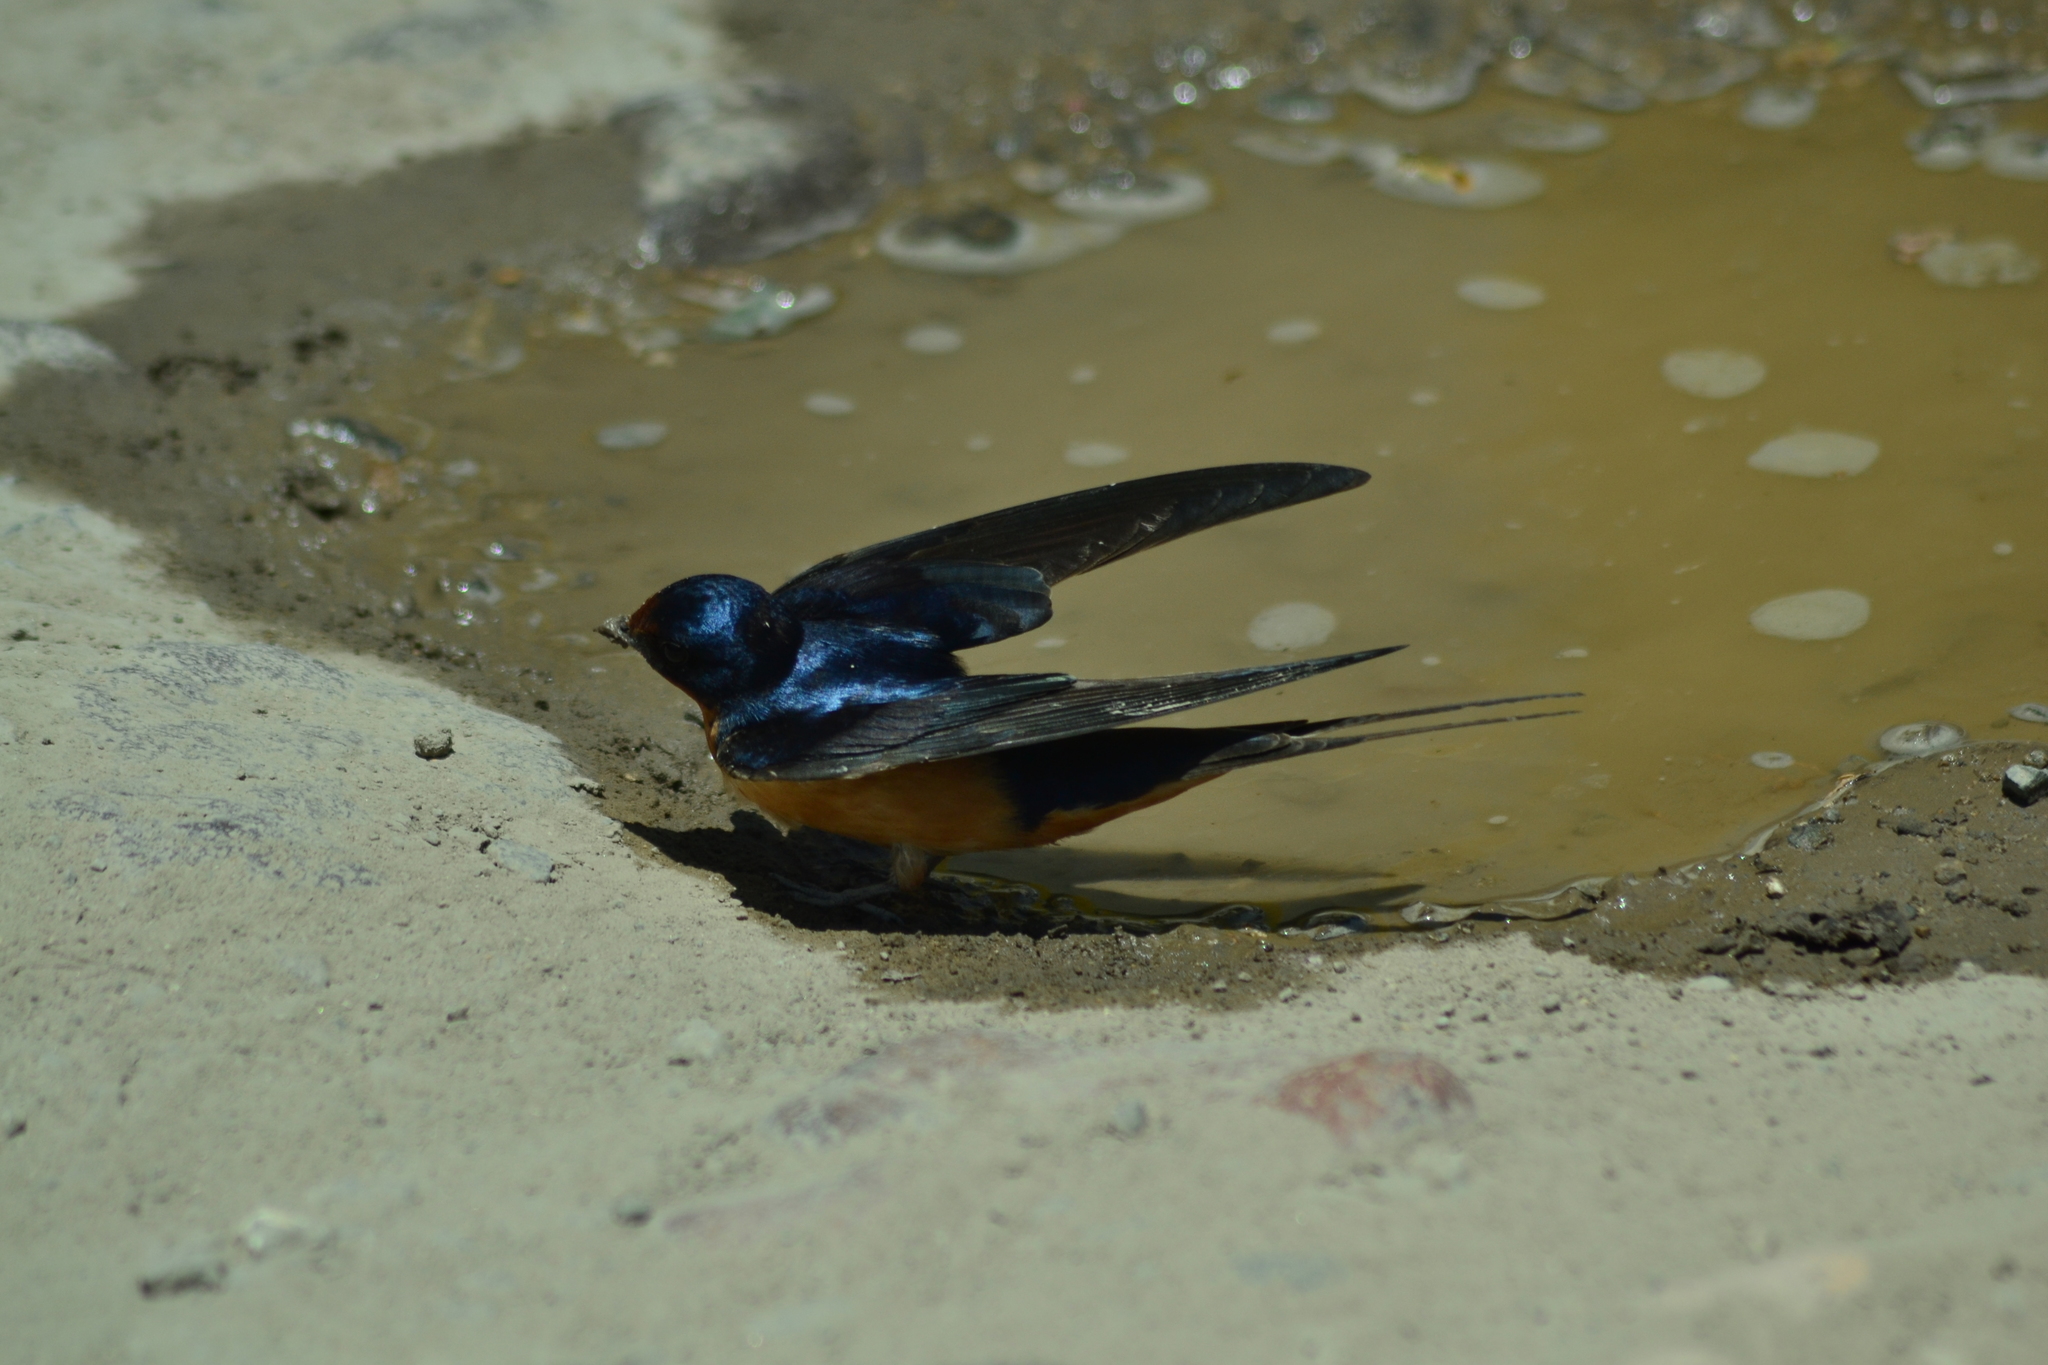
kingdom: Animalia
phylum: Chordata
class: Aves
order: Passeriformes
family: Hirundinidae
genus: Hirundo
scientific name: Hirundo rustica
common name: Barn swallow
